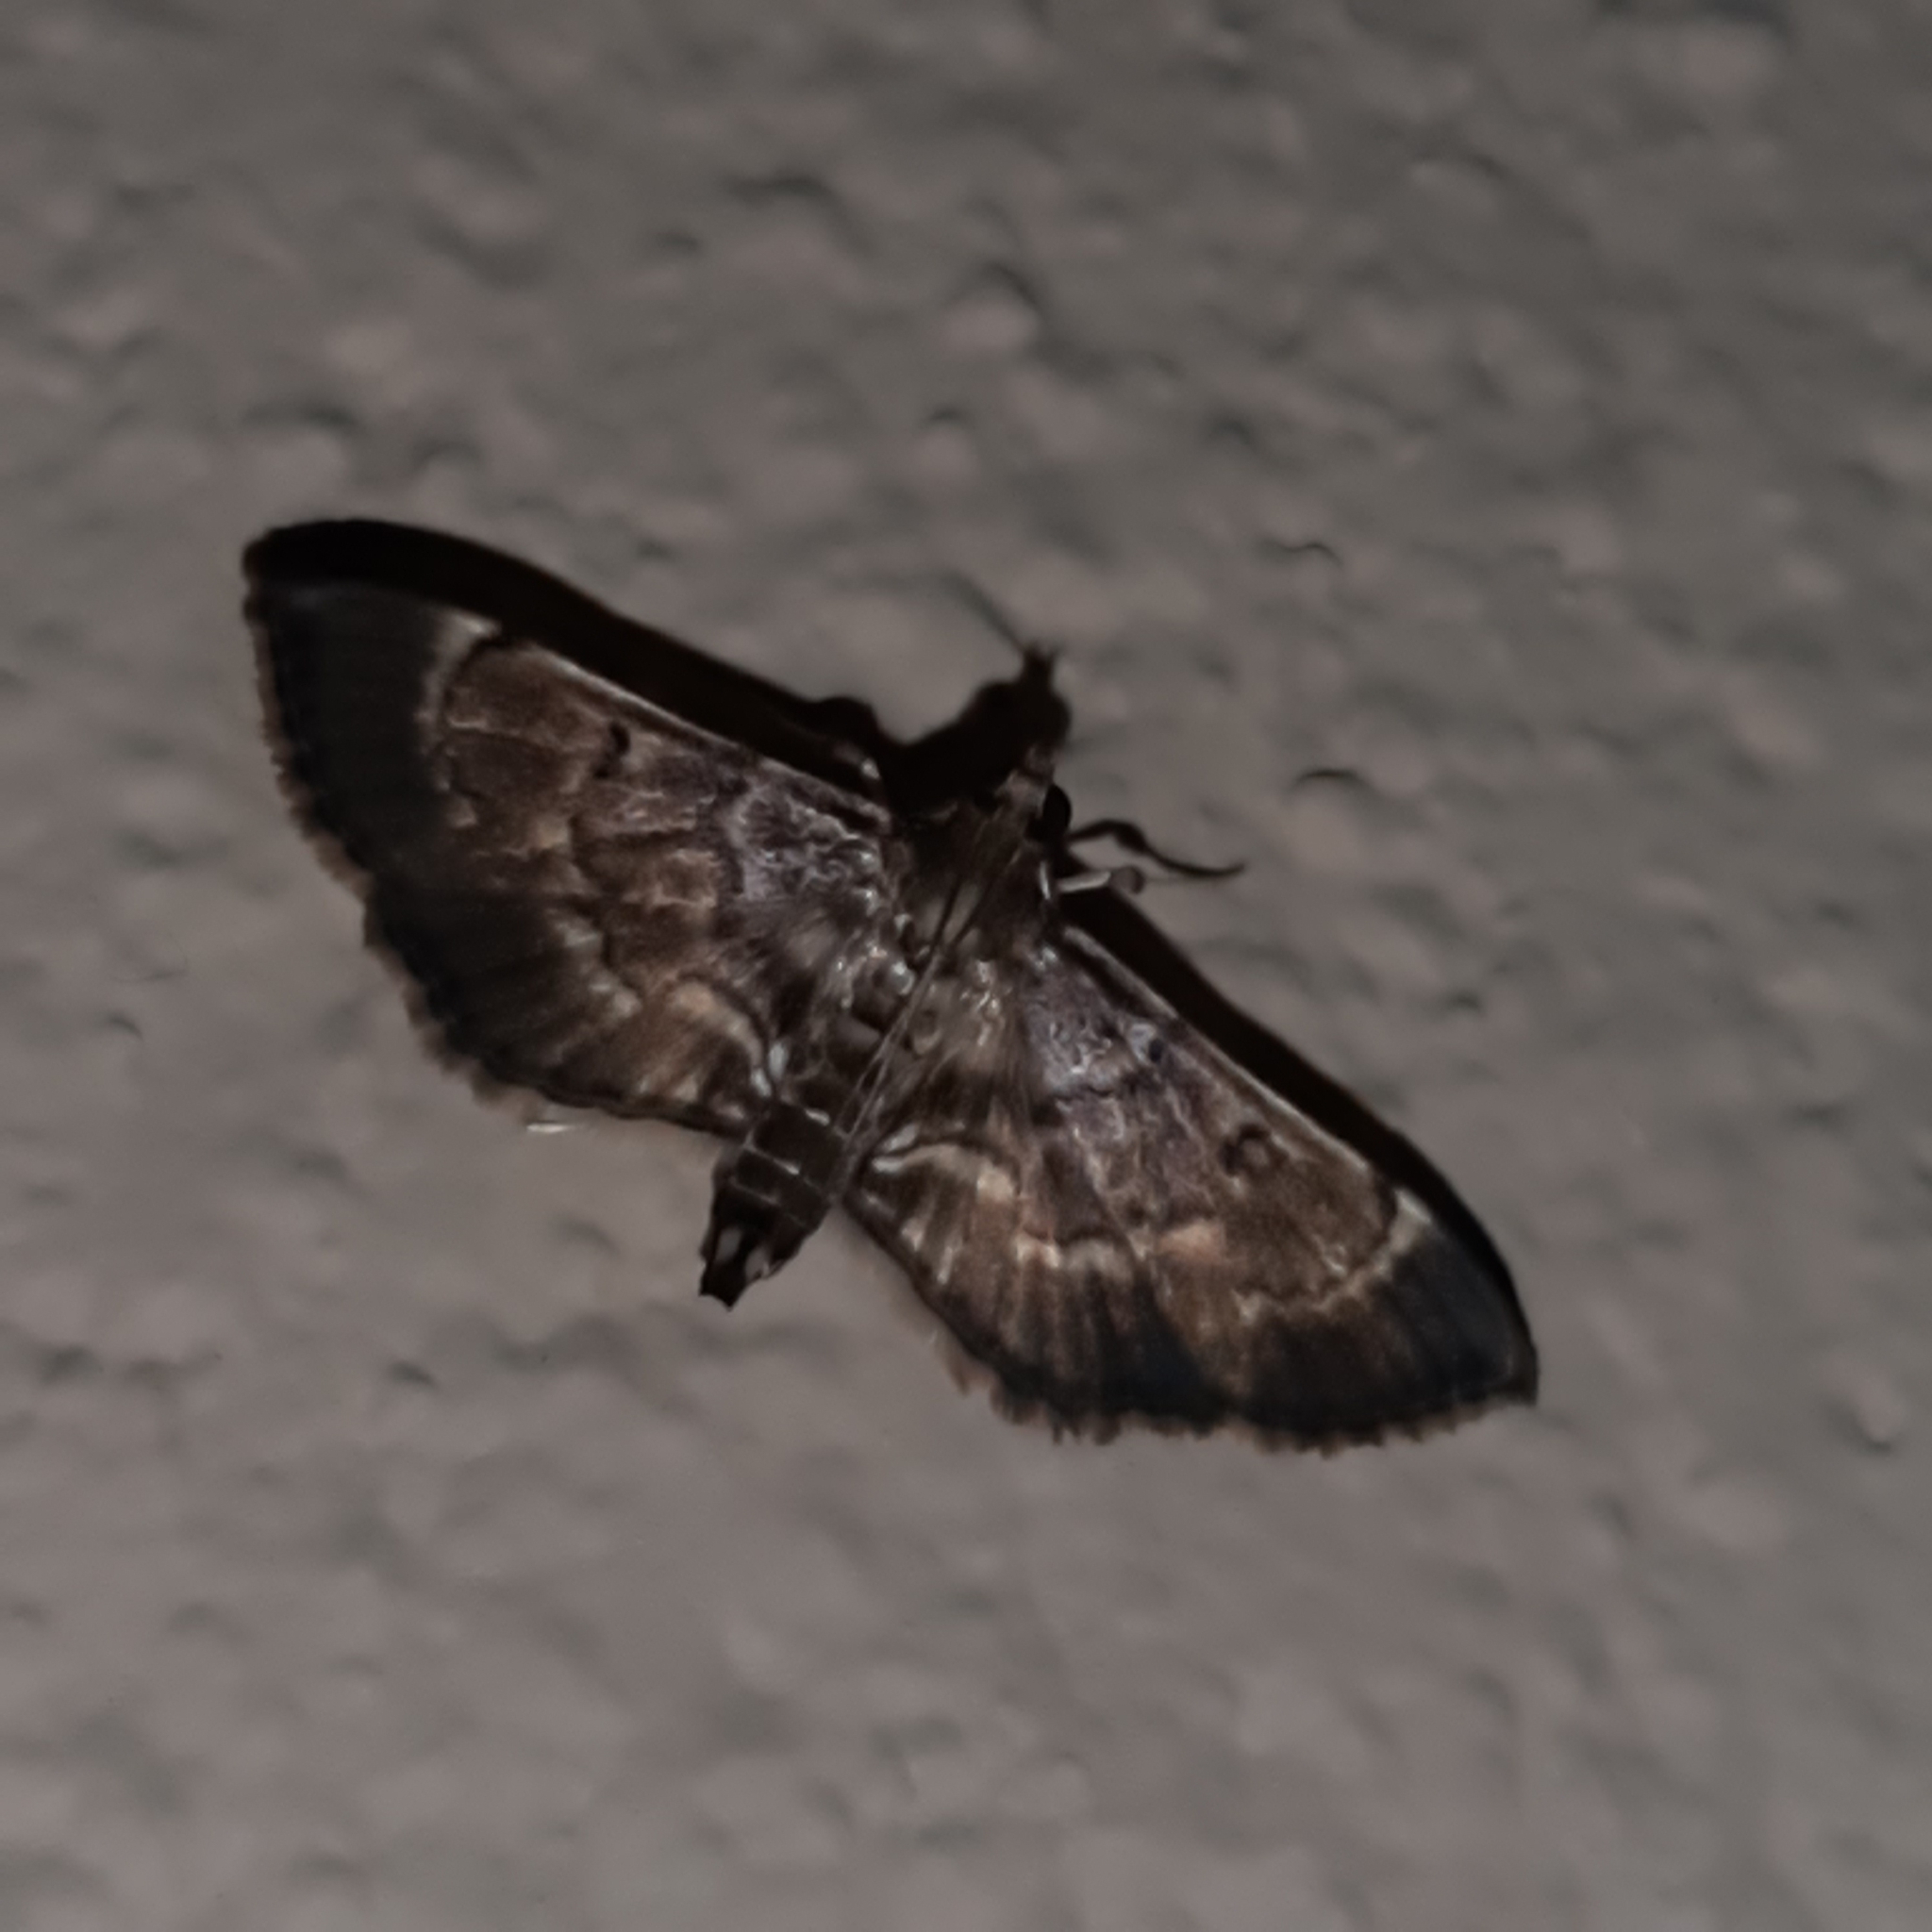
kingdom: Animalia
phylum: Arthropoda
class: Insecta
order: Lepidoptera
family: Crambidae
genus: Cryptobotys
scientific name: Cryptobotys zoilusalis
